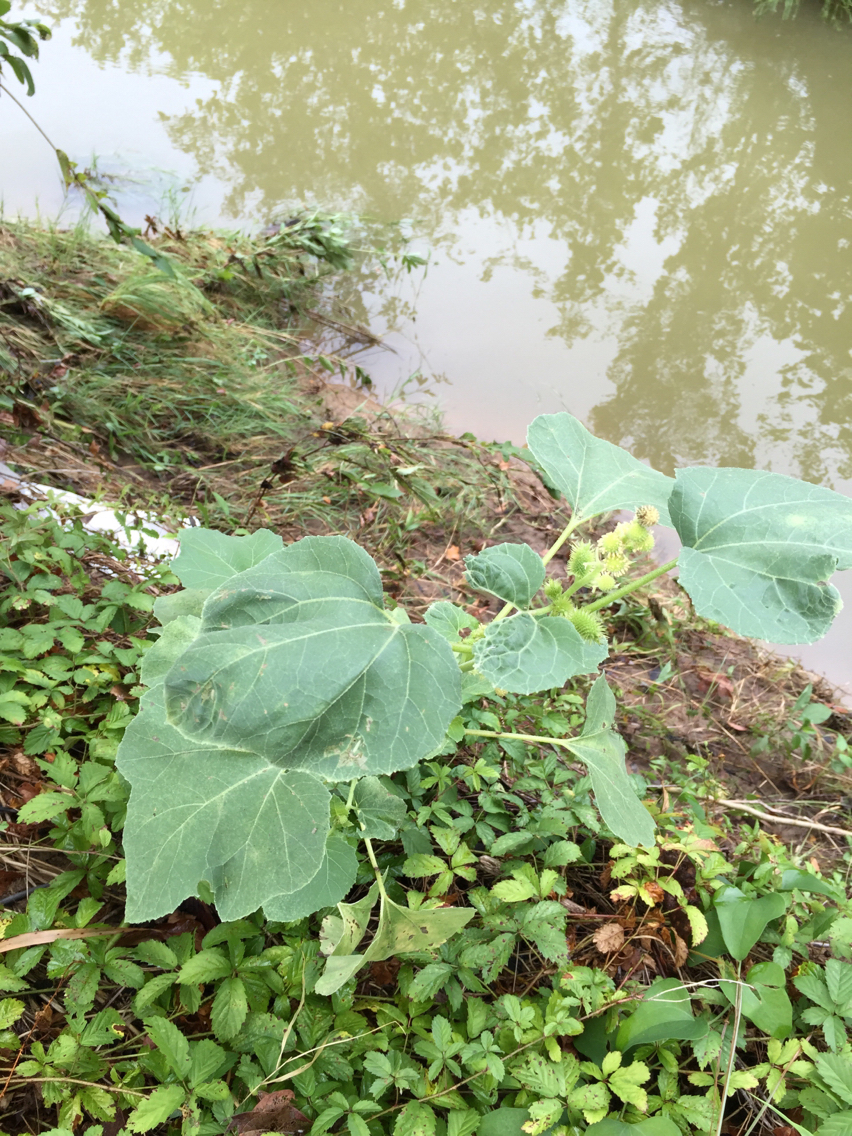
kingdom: Plantae
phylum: Tracheophyta
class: Magnoliopsida
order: Asterales
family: Asteraceae
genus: Xanthium
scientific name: Xanthium strumarium
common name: Rough cocklebur
